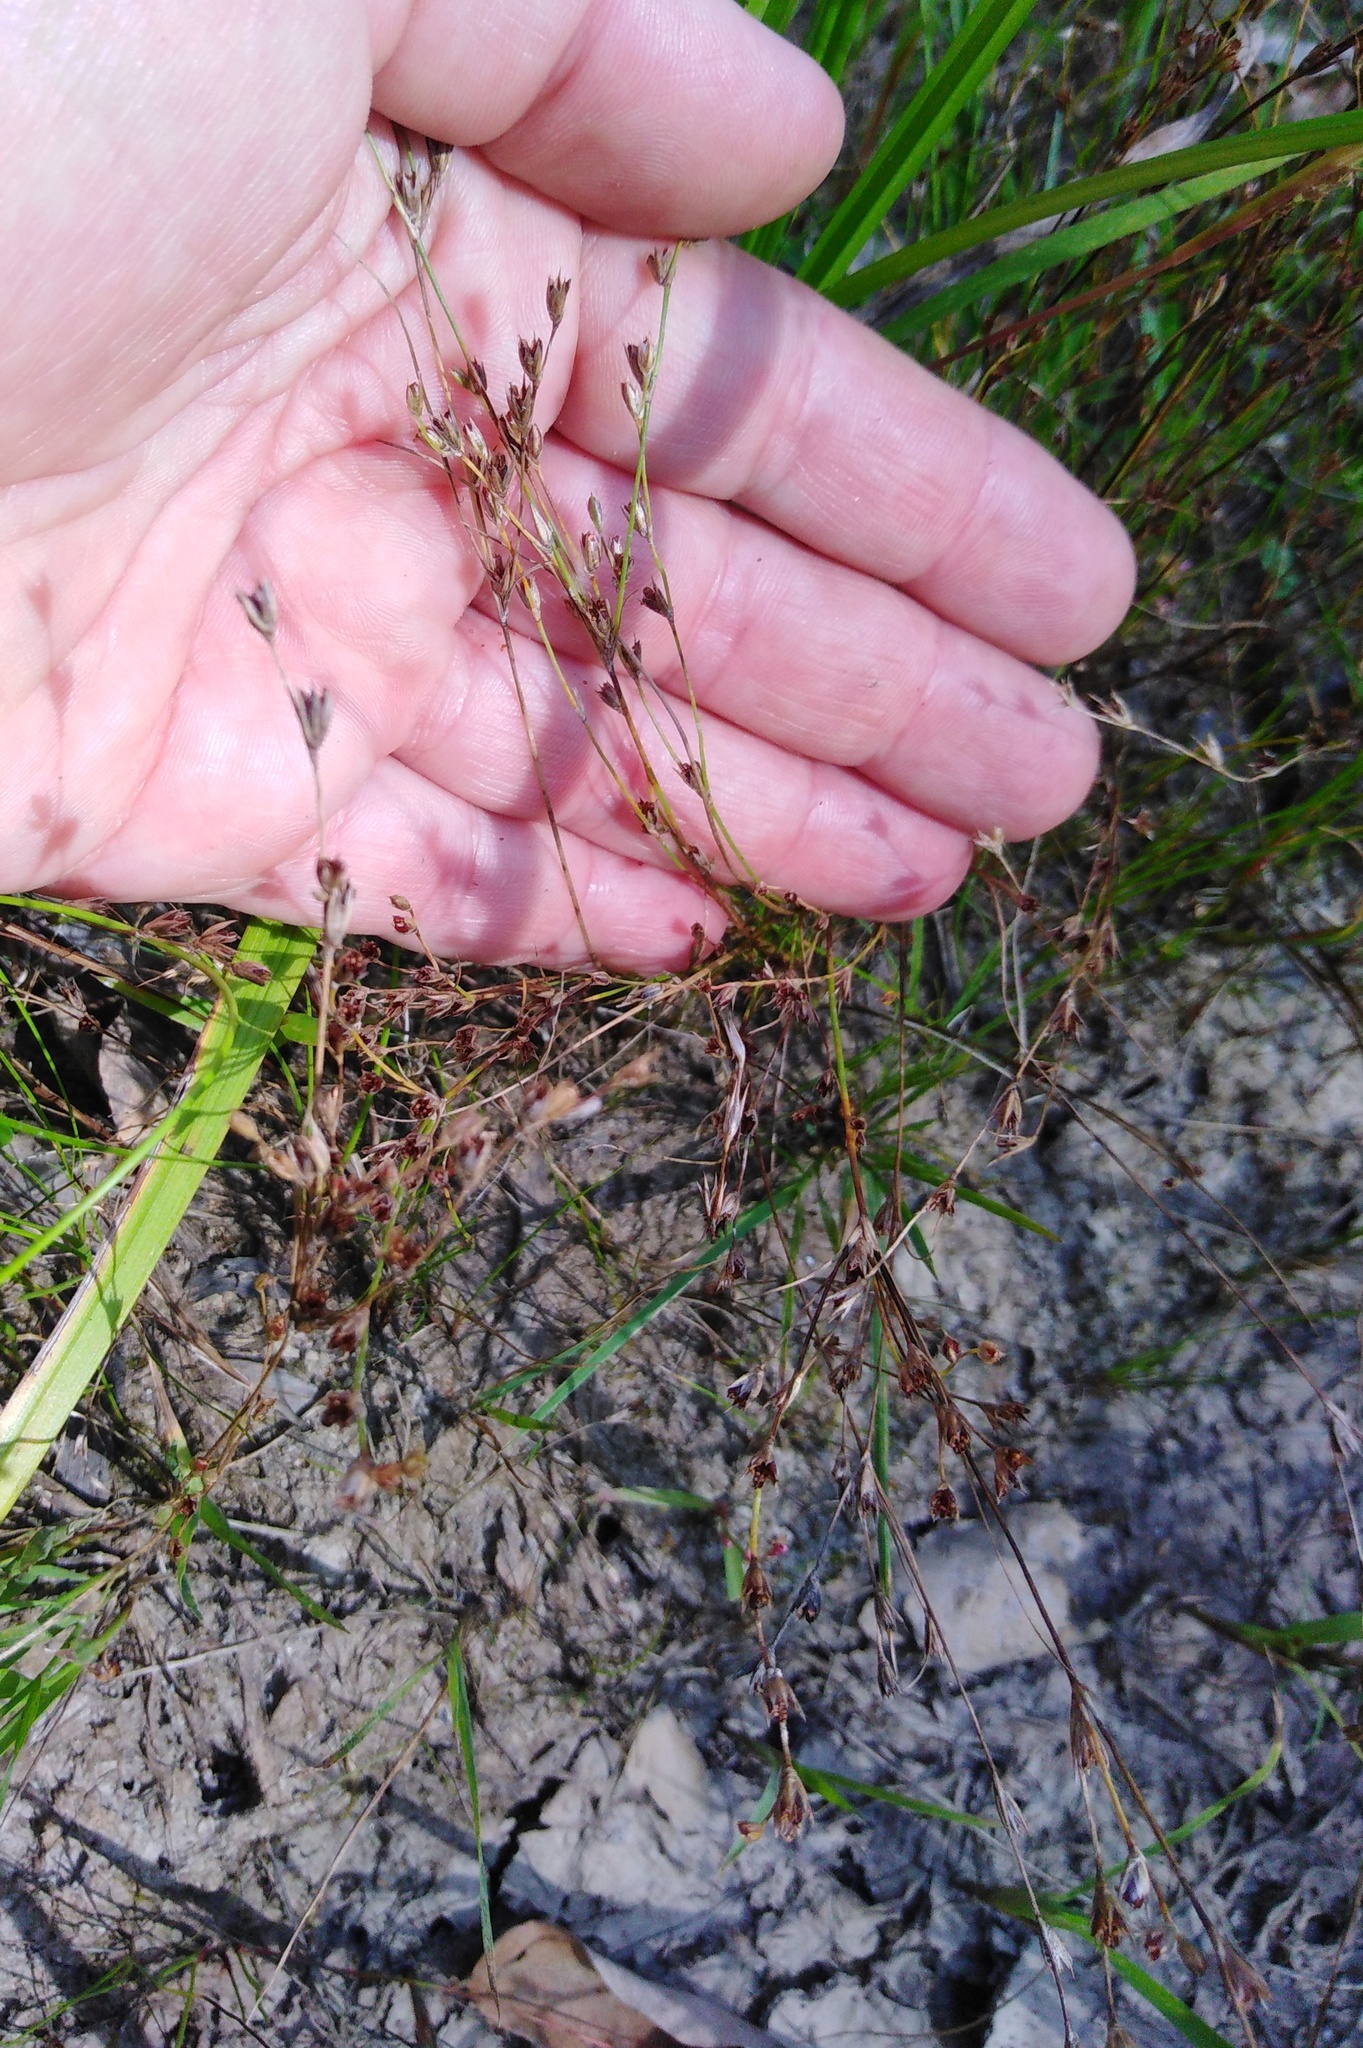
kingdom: Plantae
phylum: Tracheophyta
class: Liliopsida
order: Poales
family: Juncaceae
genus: Juncus
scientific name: Juncus bufonius
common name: Toad rush
